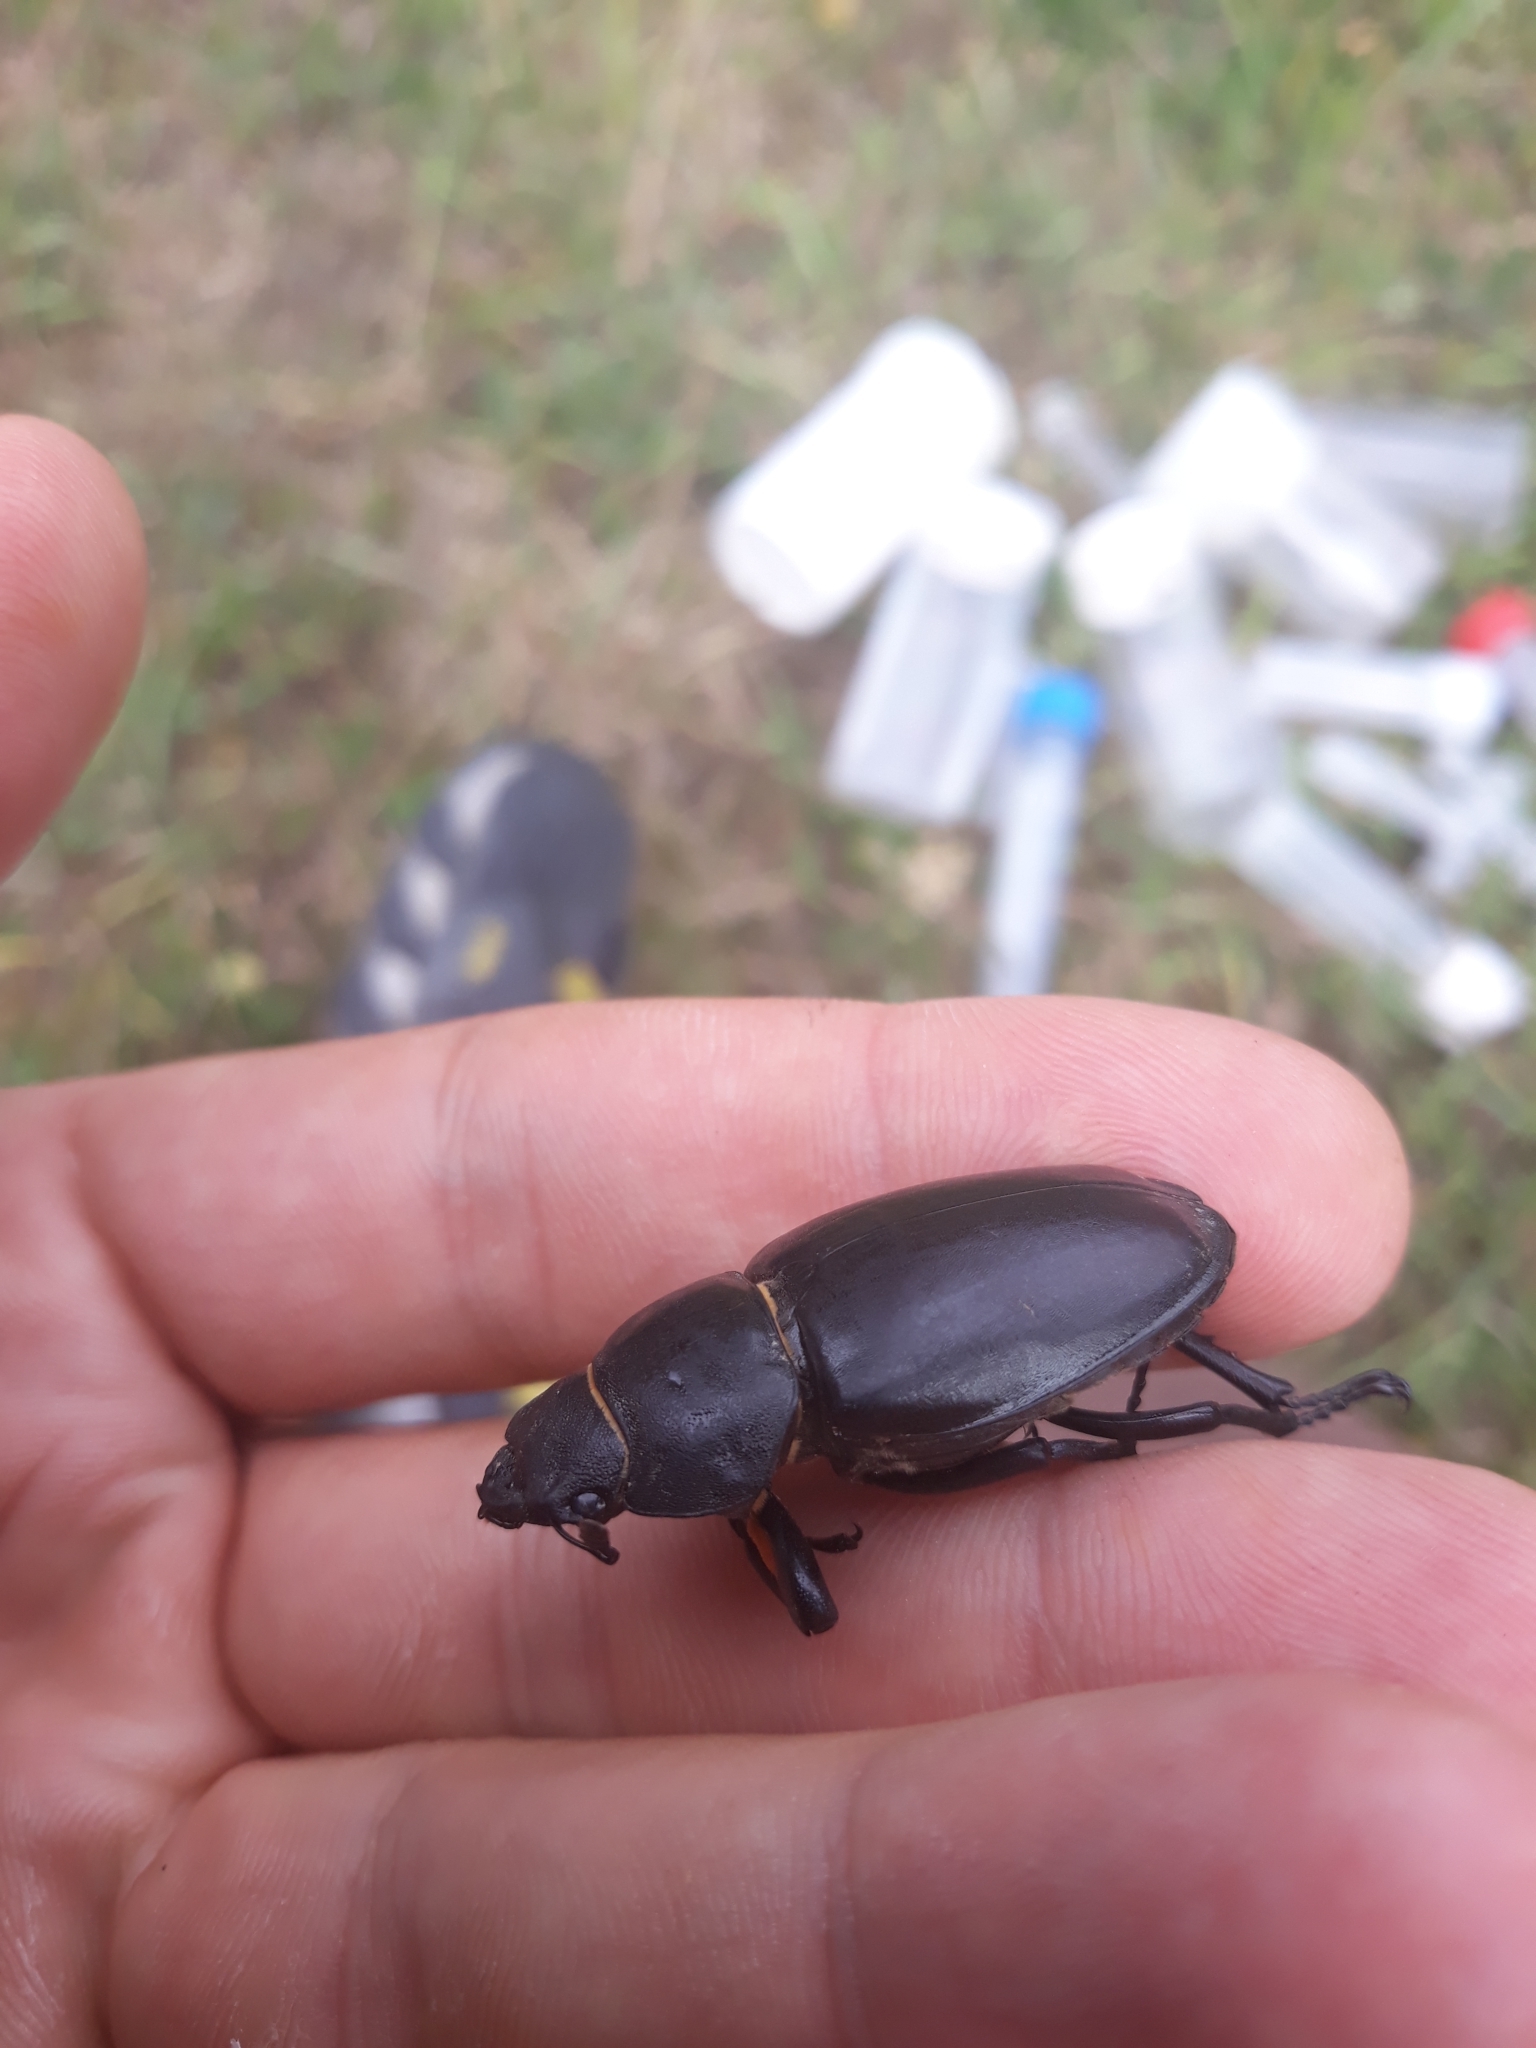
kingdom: Animalia
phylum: Arthropoda
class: Insecta
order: Coleoptera
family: Lucanidae
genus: Lucanus
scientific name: Lucanus cervus
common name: Stag beetle
